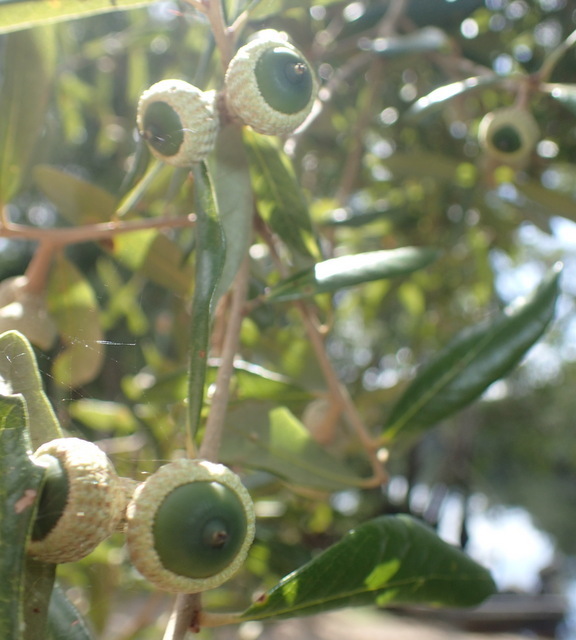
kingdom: Plantae
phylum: Tracheophyta
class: Magnoliopsida
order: Fagales
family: Fagaceae
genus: Quercus
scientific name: Quercus virginiana
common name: Southern live oak
